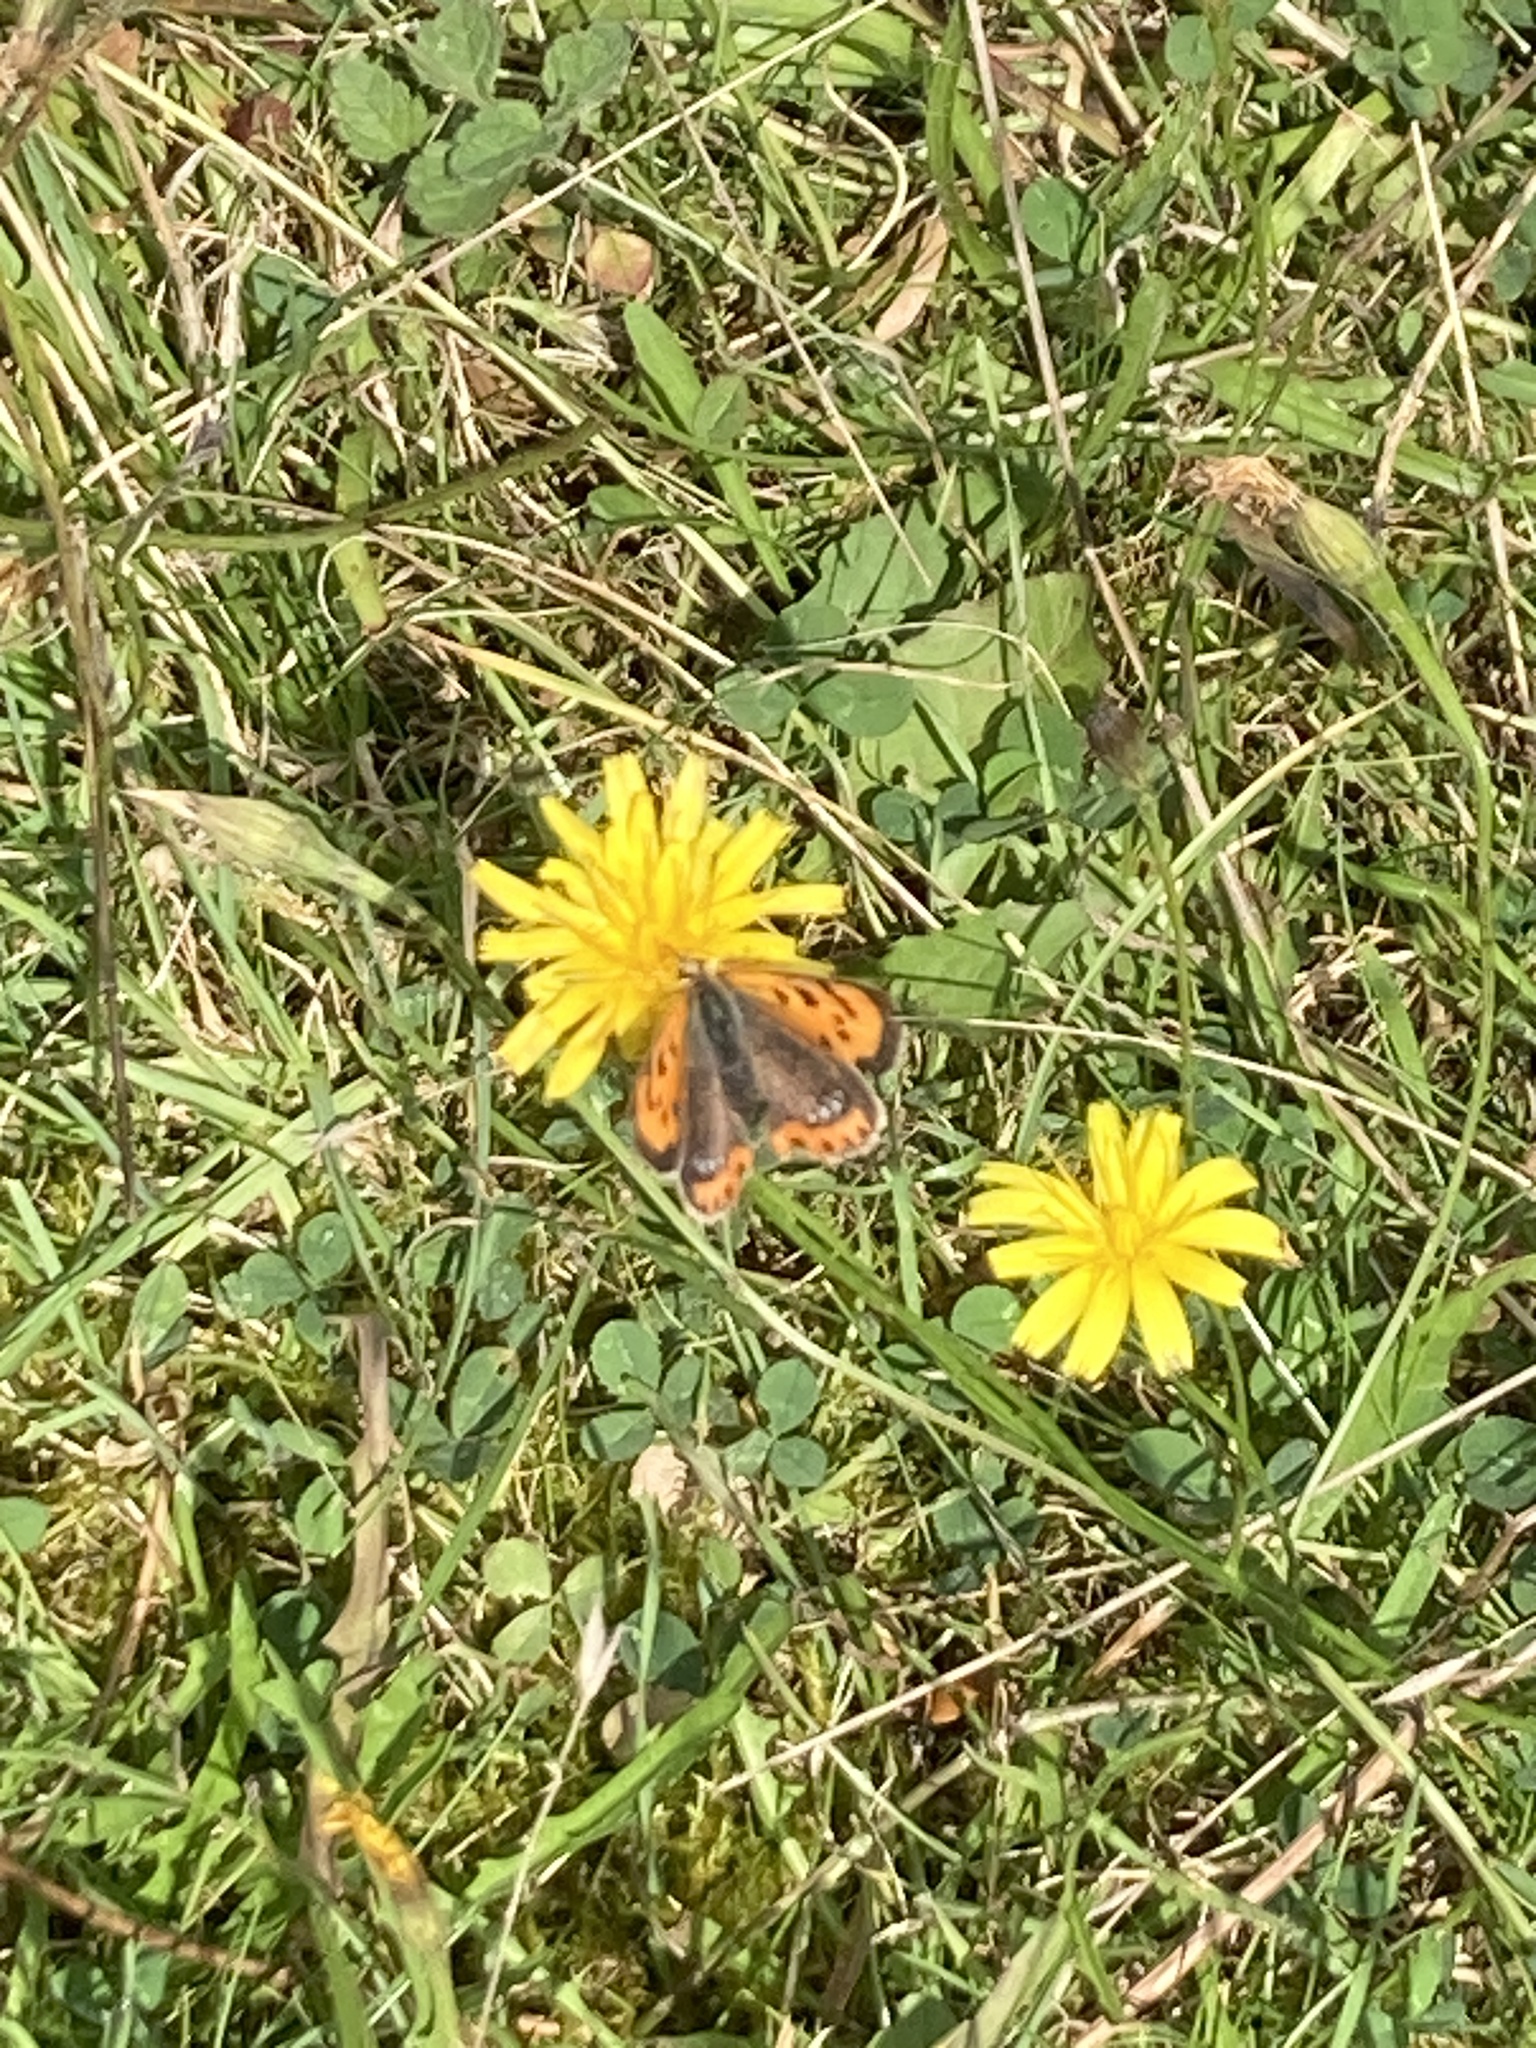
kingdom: Animalia
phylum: Arthropoda
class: Insecta
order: Lepidoptera
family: Lycaenidae
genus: Lycaena
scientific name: Lycaena phlaeas
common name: Small copper
